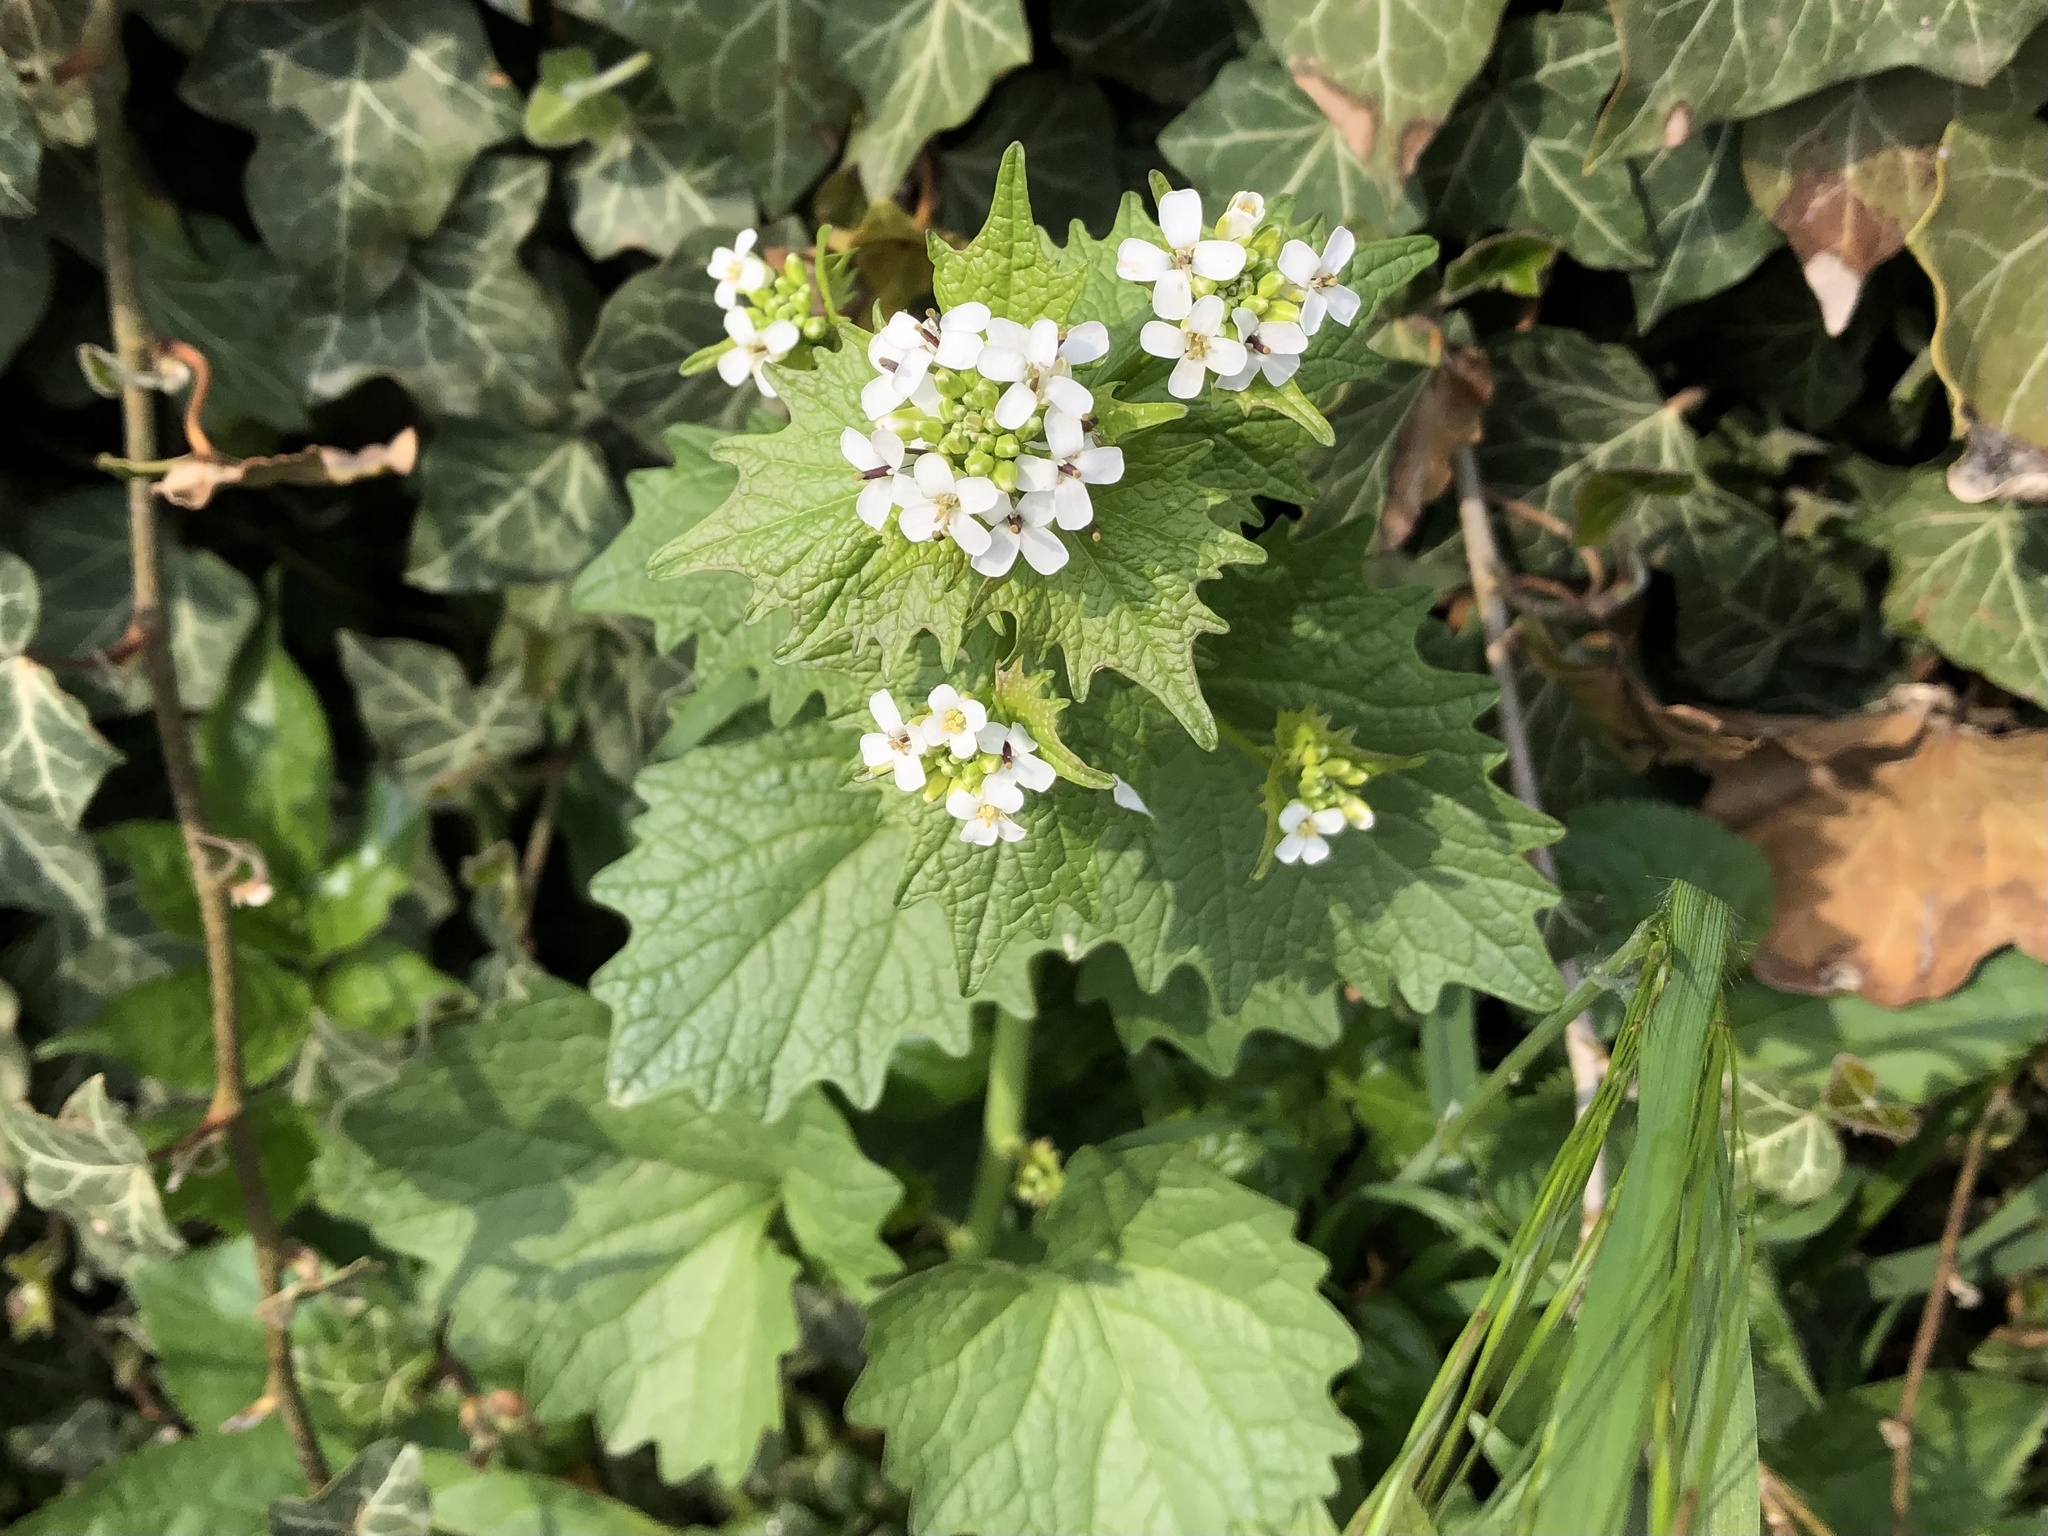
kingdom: Plantae
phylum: Tracheophyta
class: Magnoliopsida
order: Brassicales
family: Brassicaceae
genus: Alliaria
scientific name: Alliaria petiolata
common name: Garlic mustard
